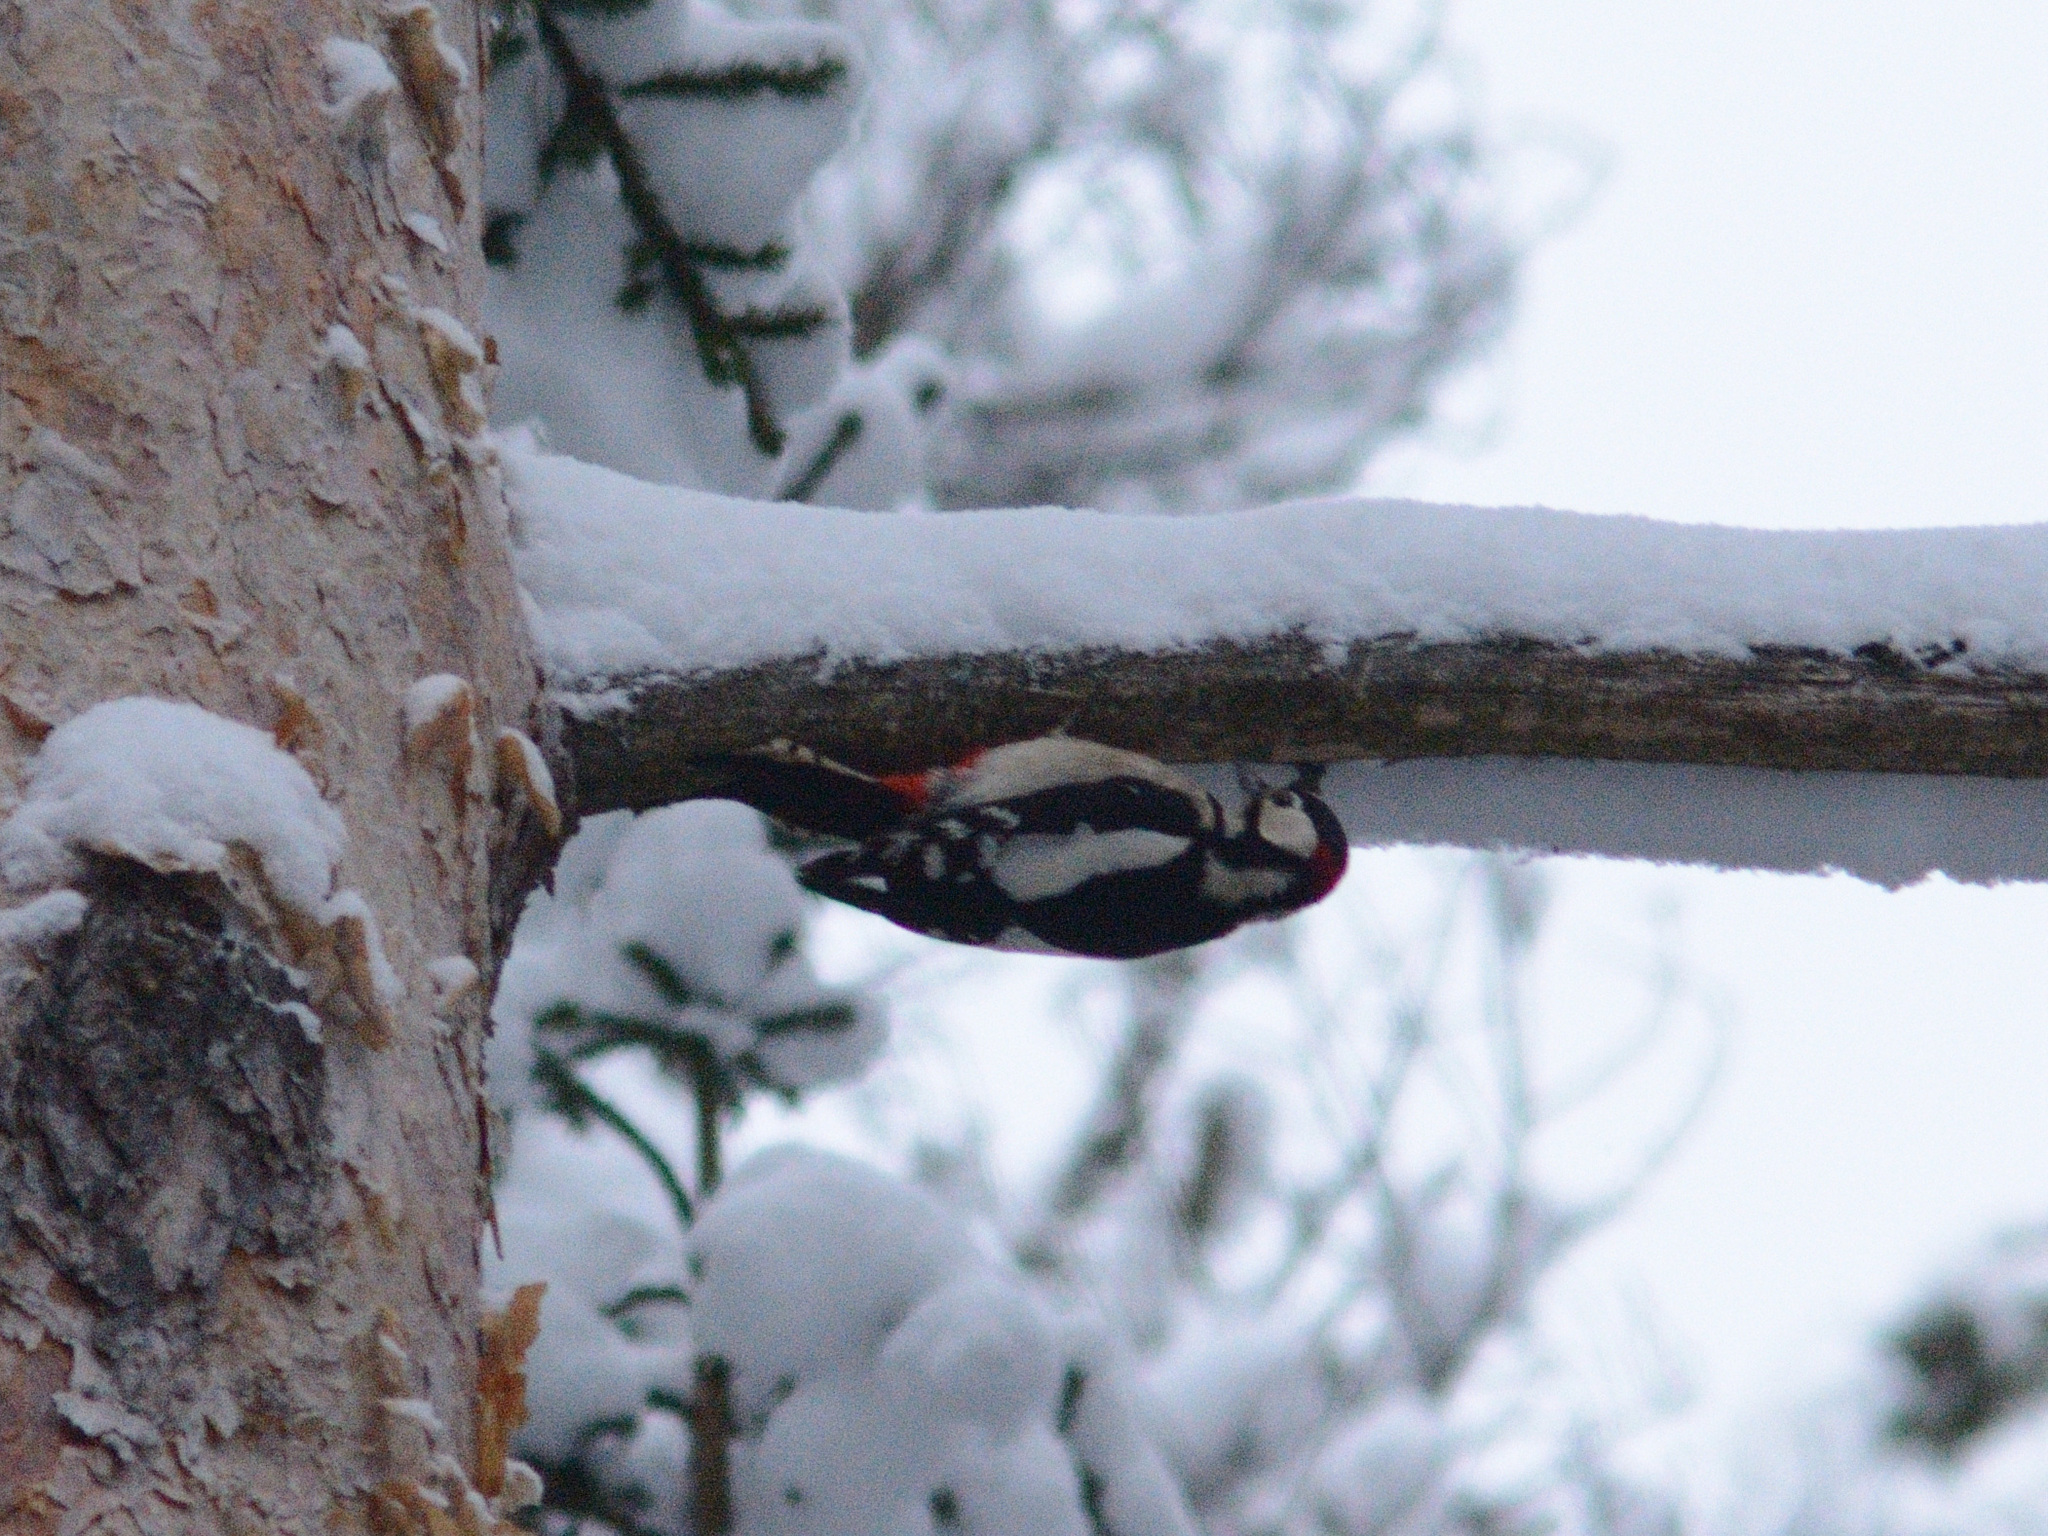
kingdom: Animalia
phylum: Chordata
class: Aves
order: Piciformes
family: Picidae
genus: Dendrocopos
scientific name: Dendrocopos major
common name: Great spotted woodpecker
